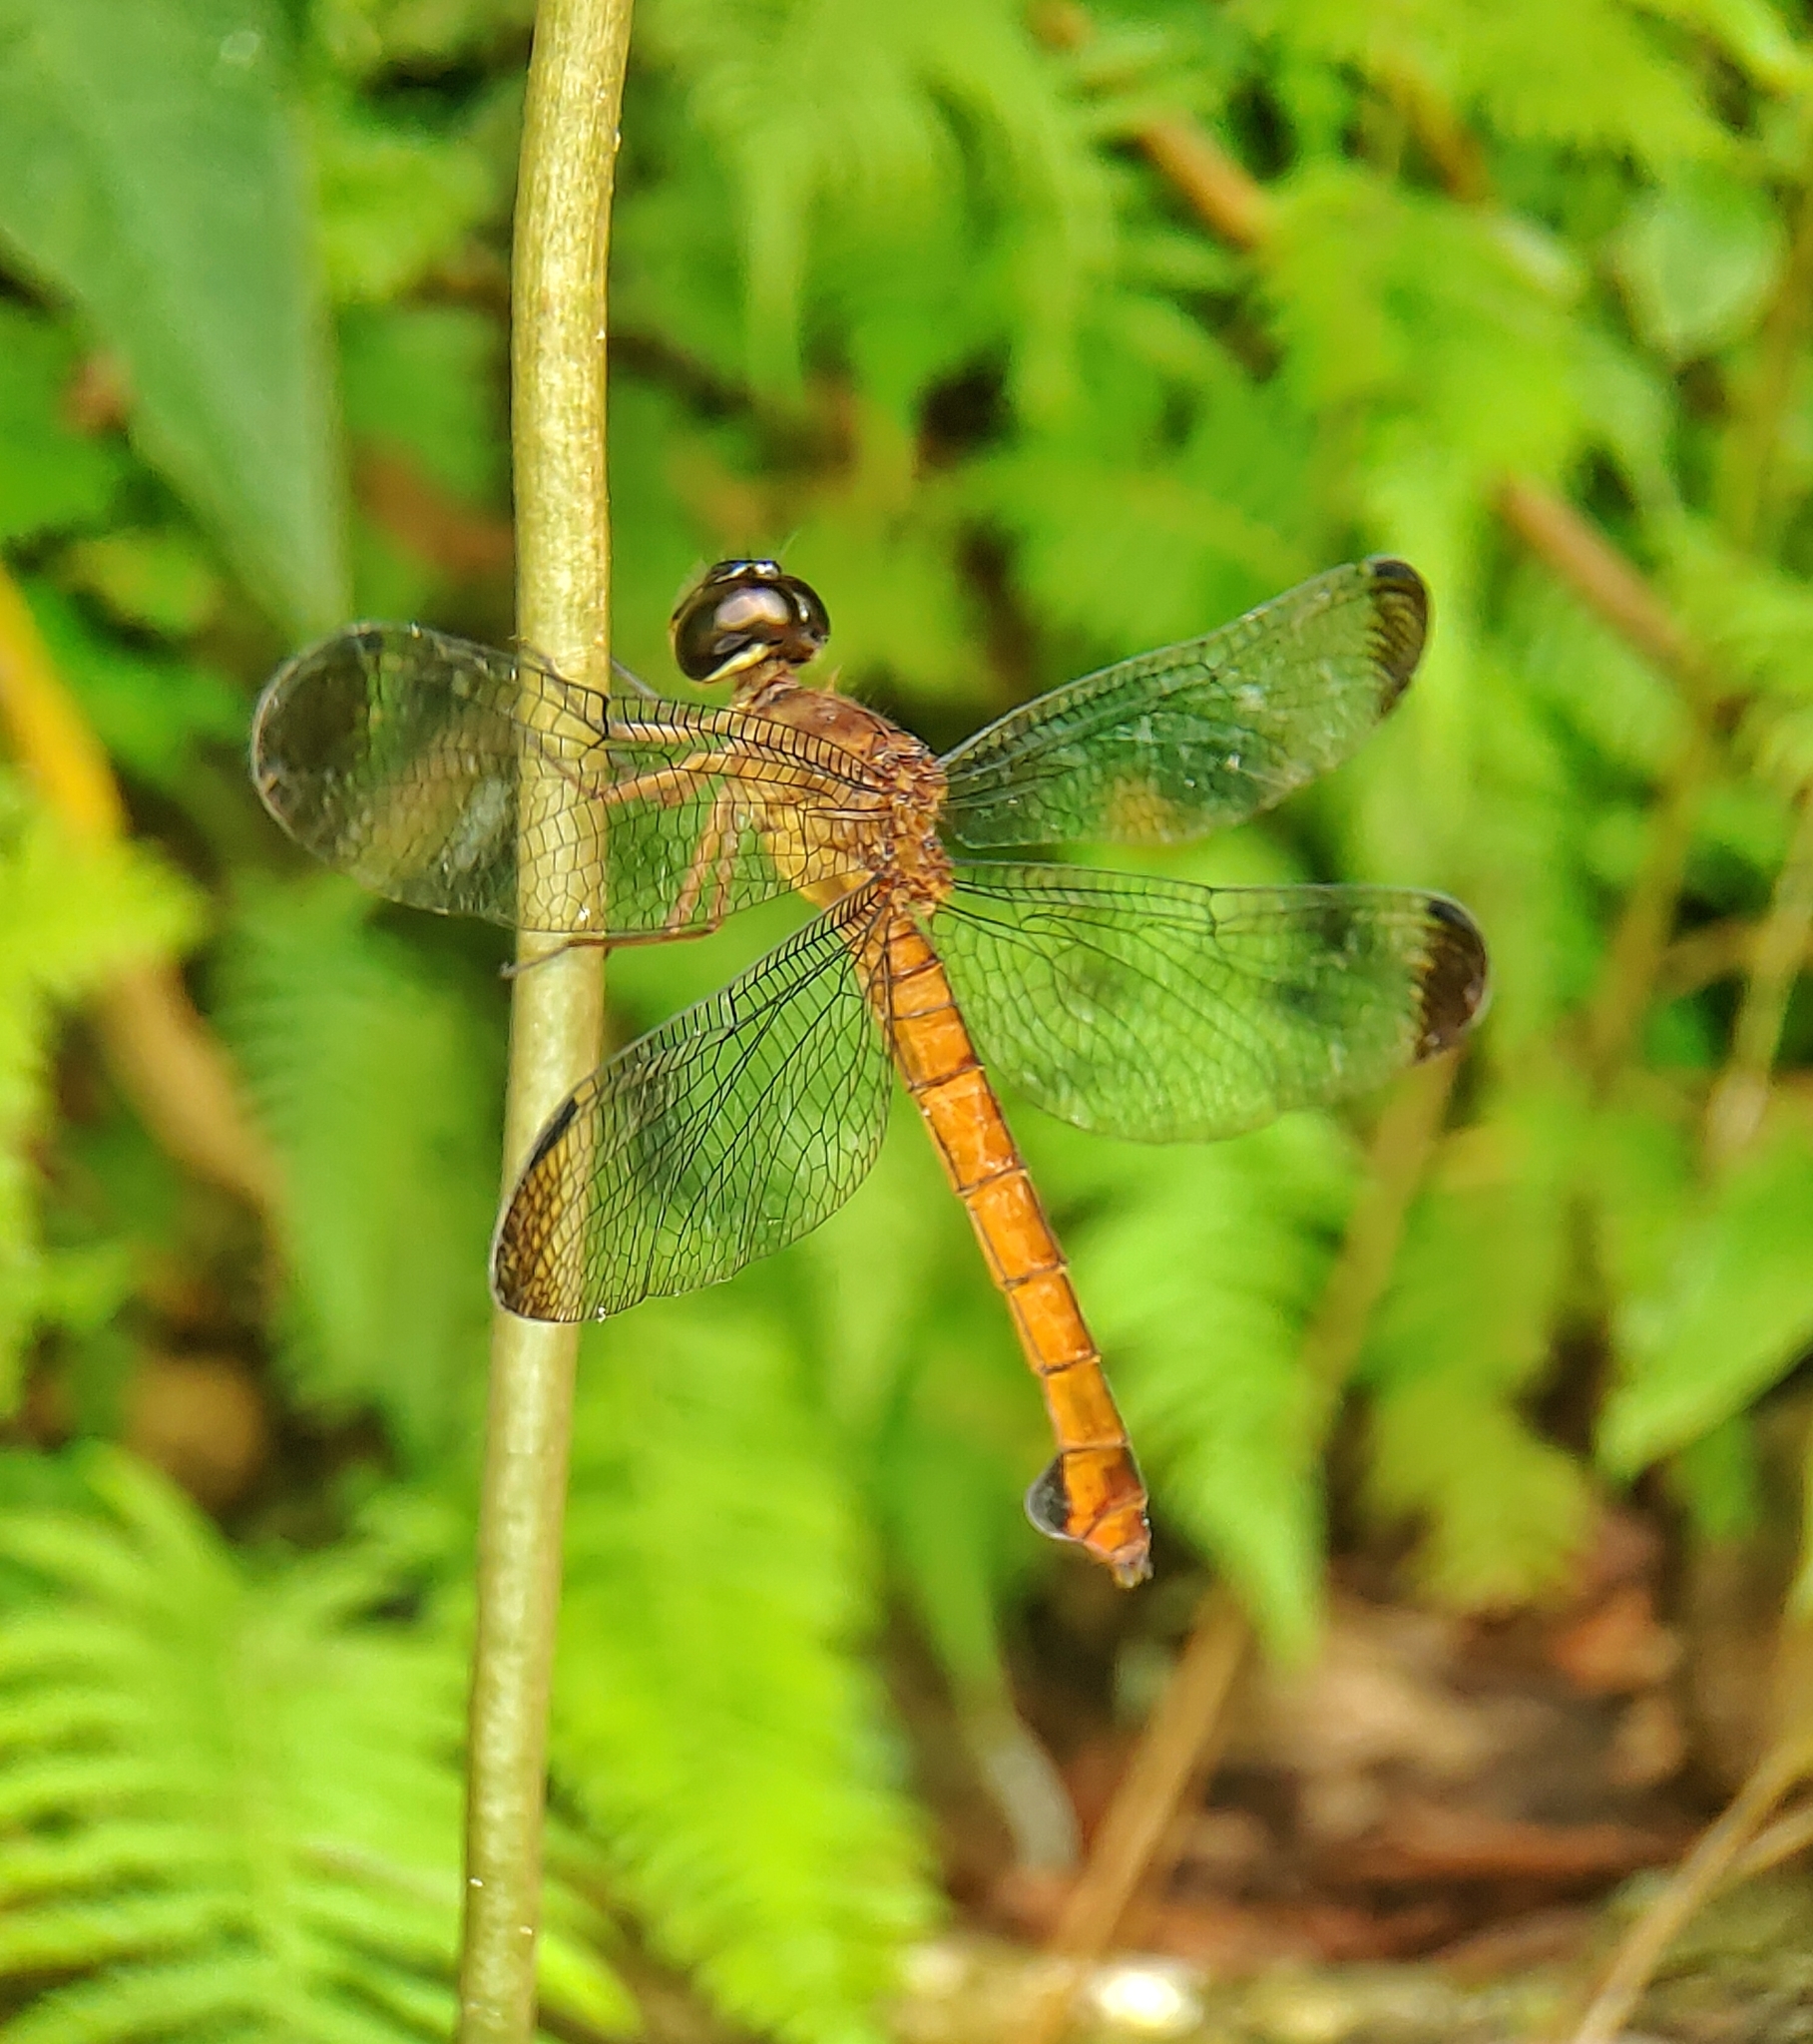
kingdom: Animalia
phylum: Arthropoda
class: Insecta
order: Odonata
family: Libellulidae
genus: Lyriothemis
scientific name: Lyriothemis biappendiculata
